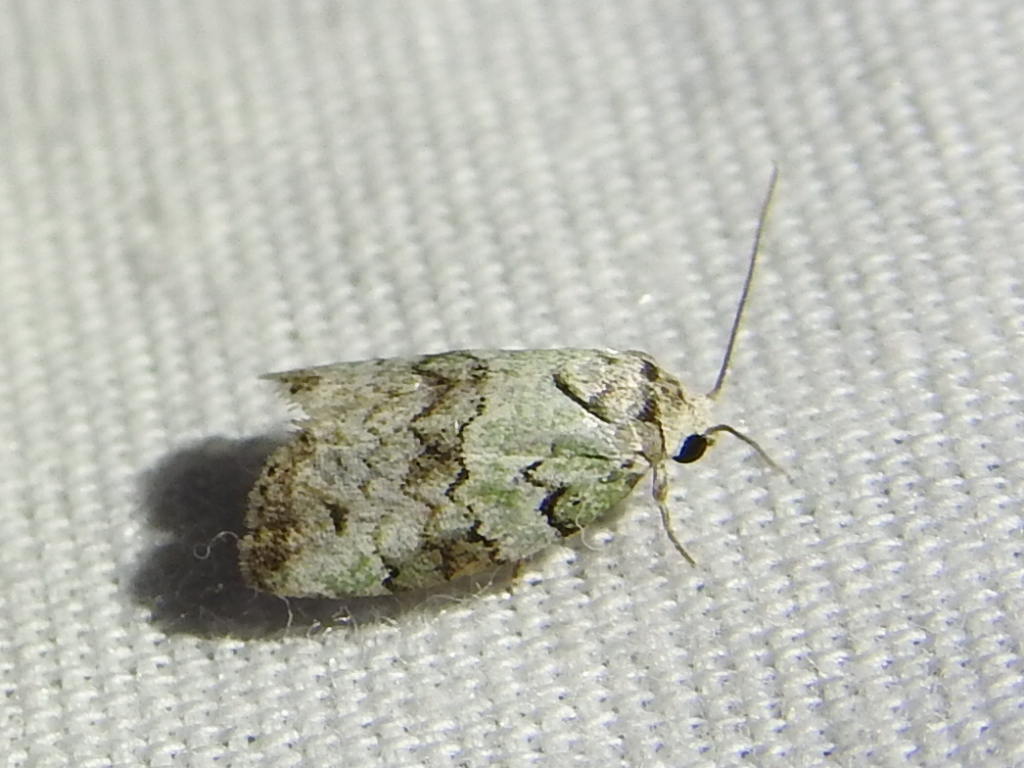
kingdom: Animalia
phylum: Arthropoda
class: Insecta
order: Lepidoptera
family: Nolidae
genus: Afrida
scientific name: Afrida ydatodes
